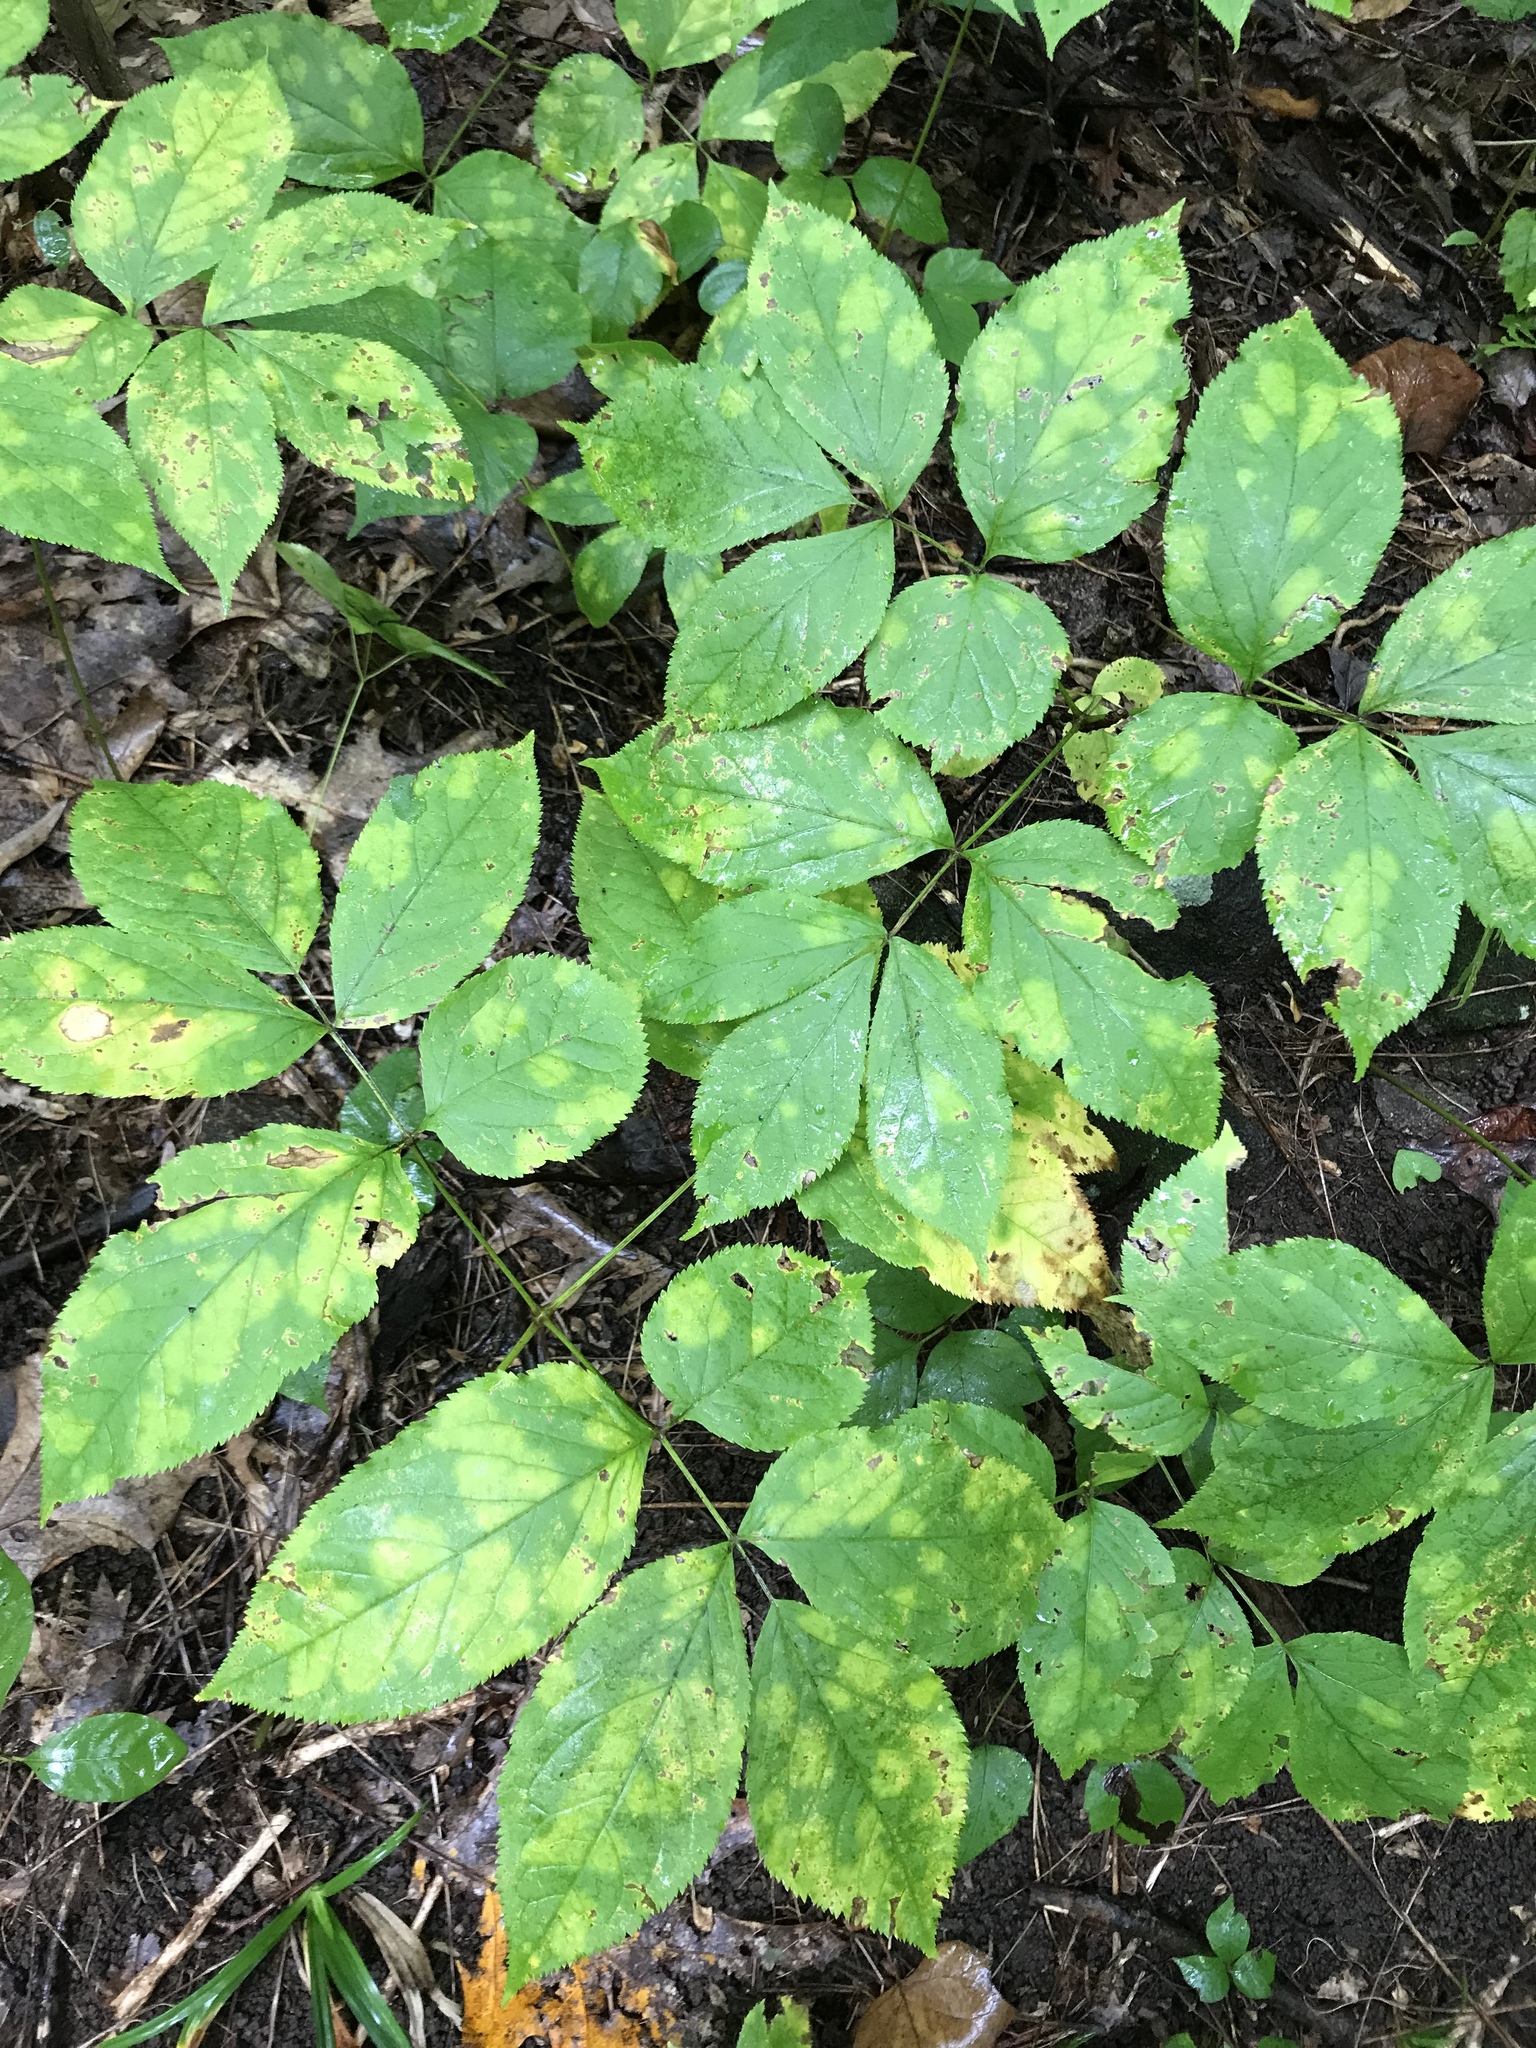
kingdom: Plantae
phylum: Tracheophyta
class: Magnoliopsida
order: Apiales
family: Araliaceae
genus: Aralia
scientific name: Aralia nudicaulis
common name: Wild sarsaparilla
